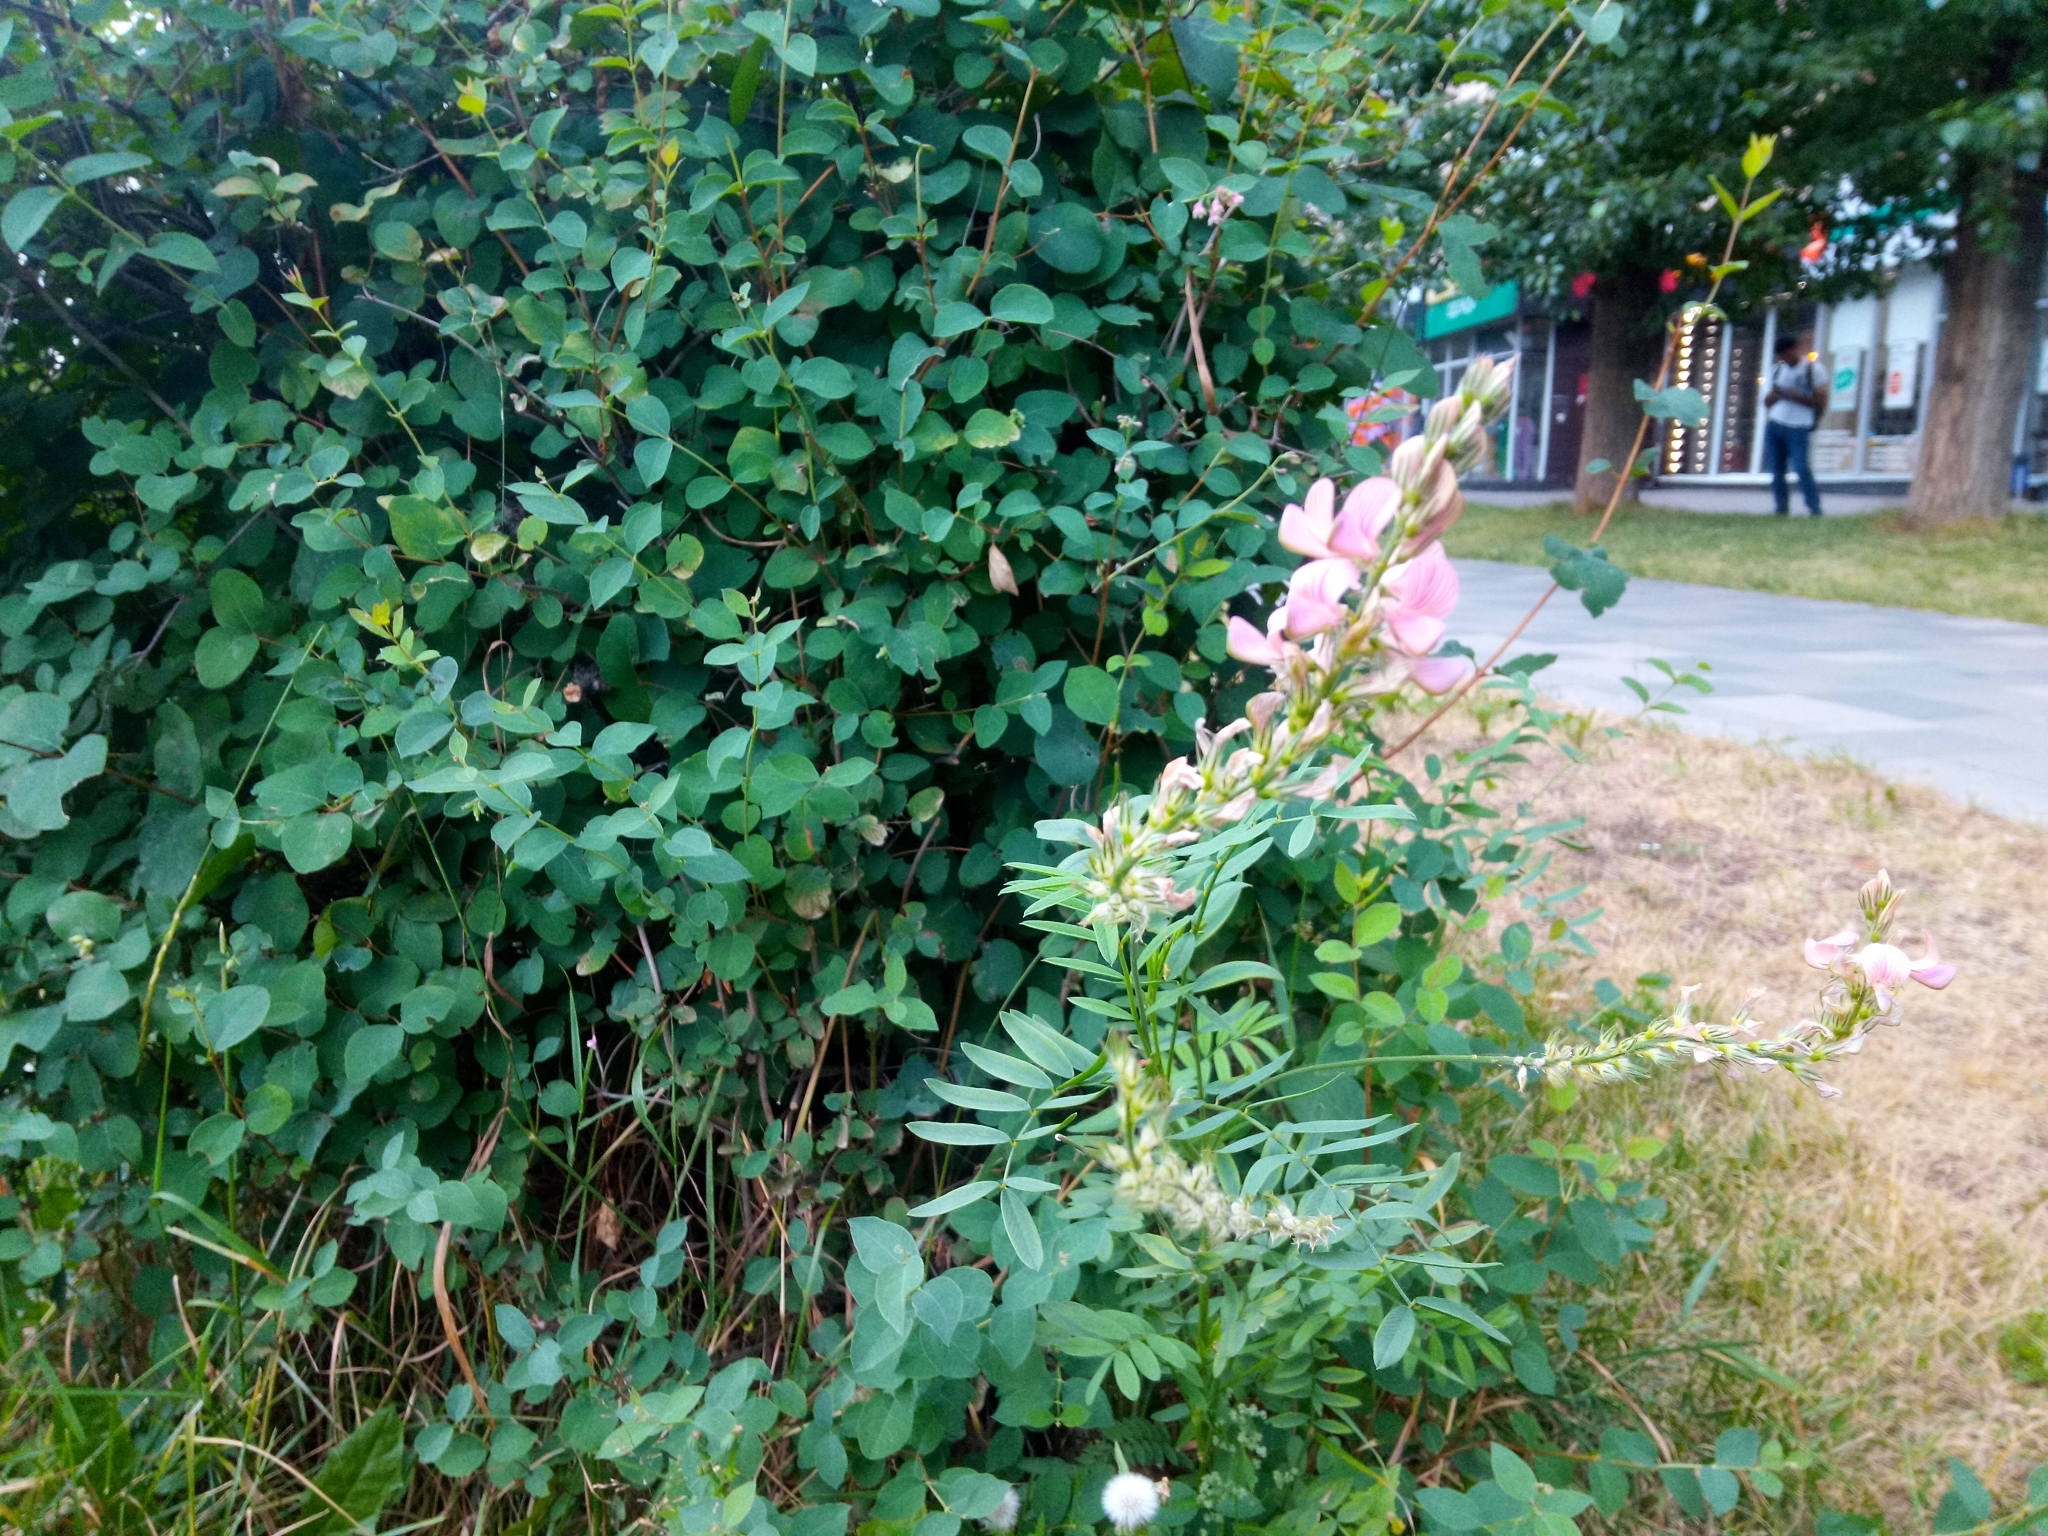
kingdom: Plantae
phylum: Tracheophyta
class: Magnoliopsida
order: Fabales
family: Fabaceae
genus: Onobrychis
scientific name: Onobrychis viciifolia
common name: Sainfoin
